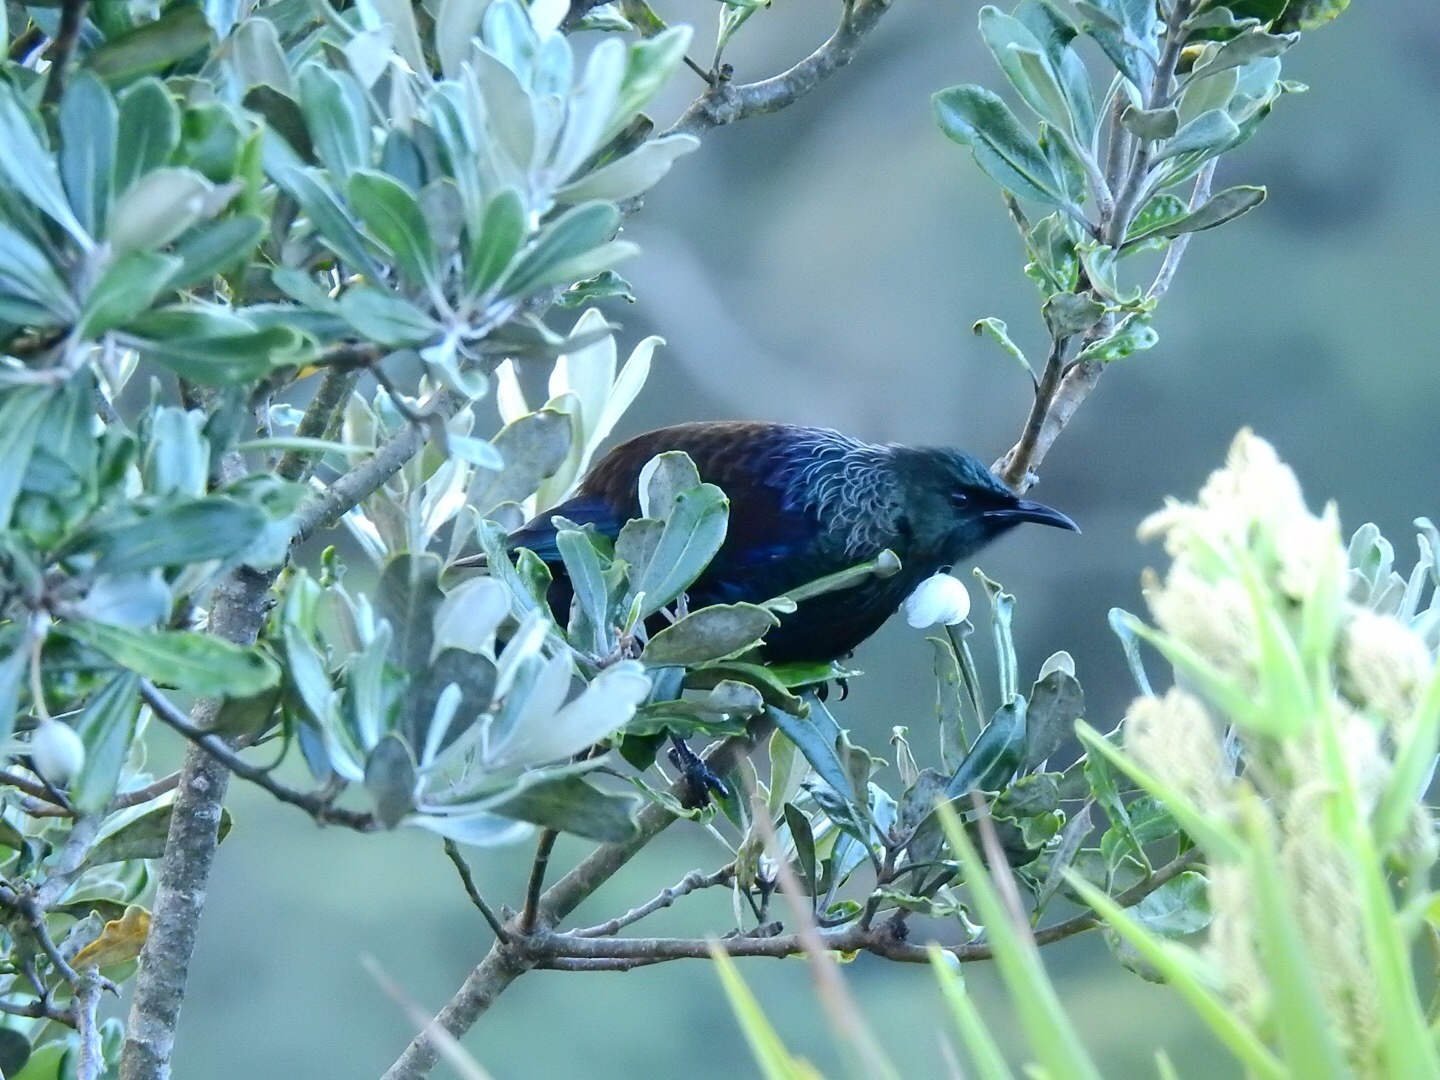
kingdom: Animalia
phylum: Chordata
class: Aves
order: Passeriformes
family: Meliphagidae
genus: Prosthemadera
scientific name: Prosthemadera novaeseelandiae
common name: Tui
